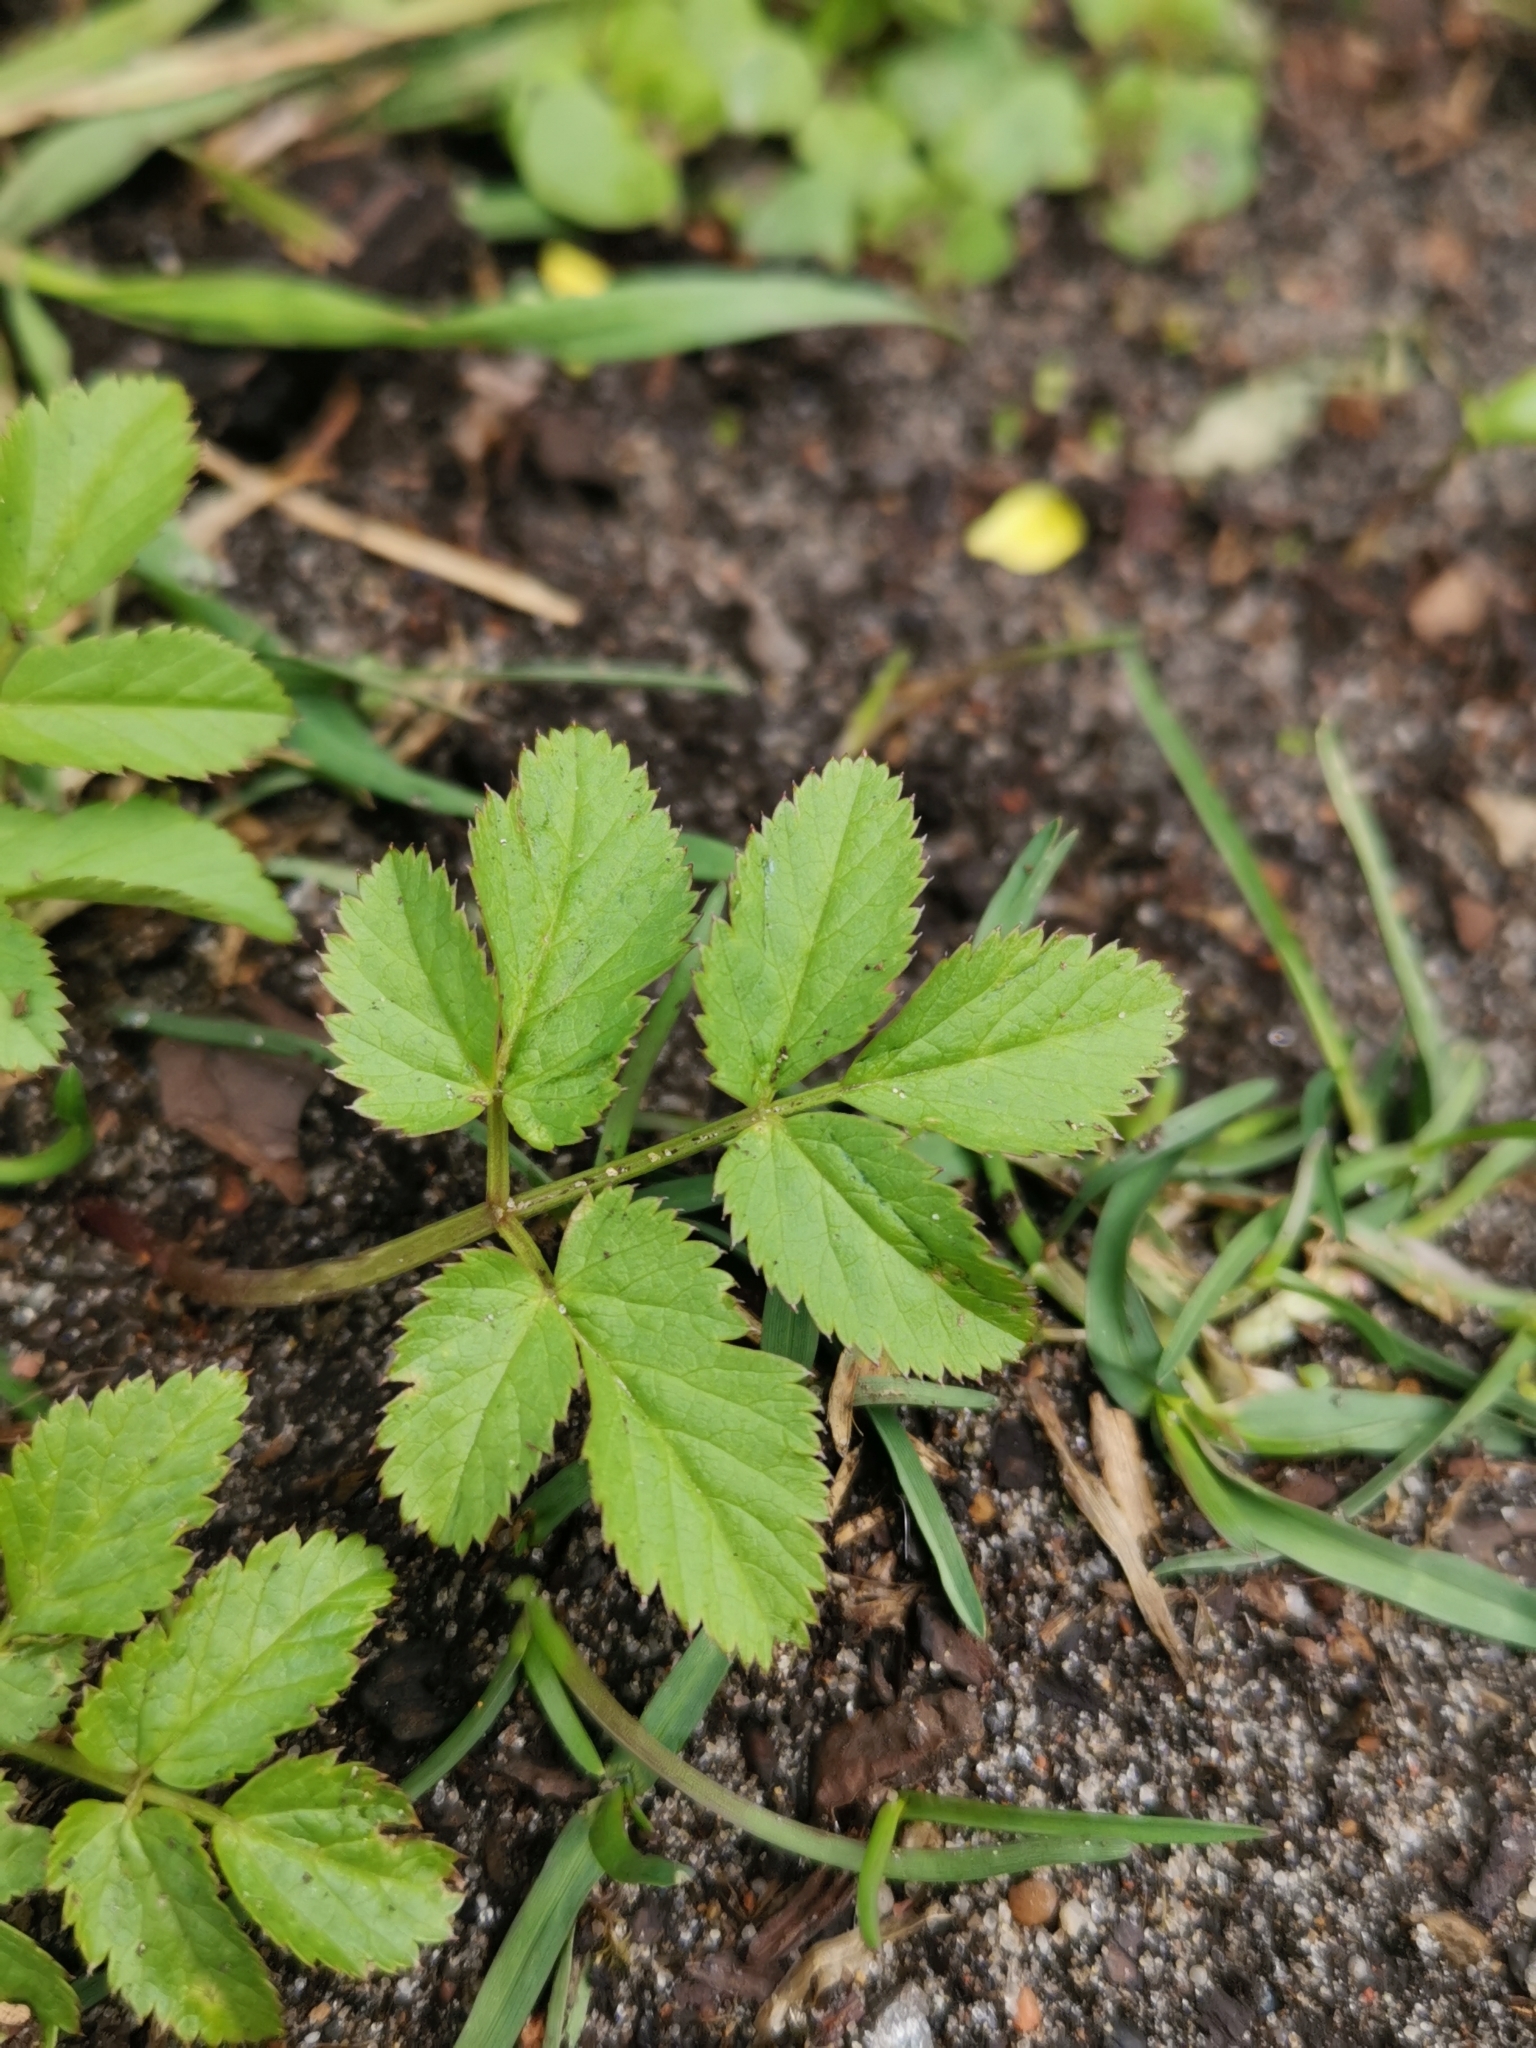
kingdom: Plantae
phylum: Tracheophyta
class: Magnoliopsida
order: Apiales
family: Apiaceae
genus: Aegopodium
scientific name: Aegopodium podagraria
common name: Ground-elder
